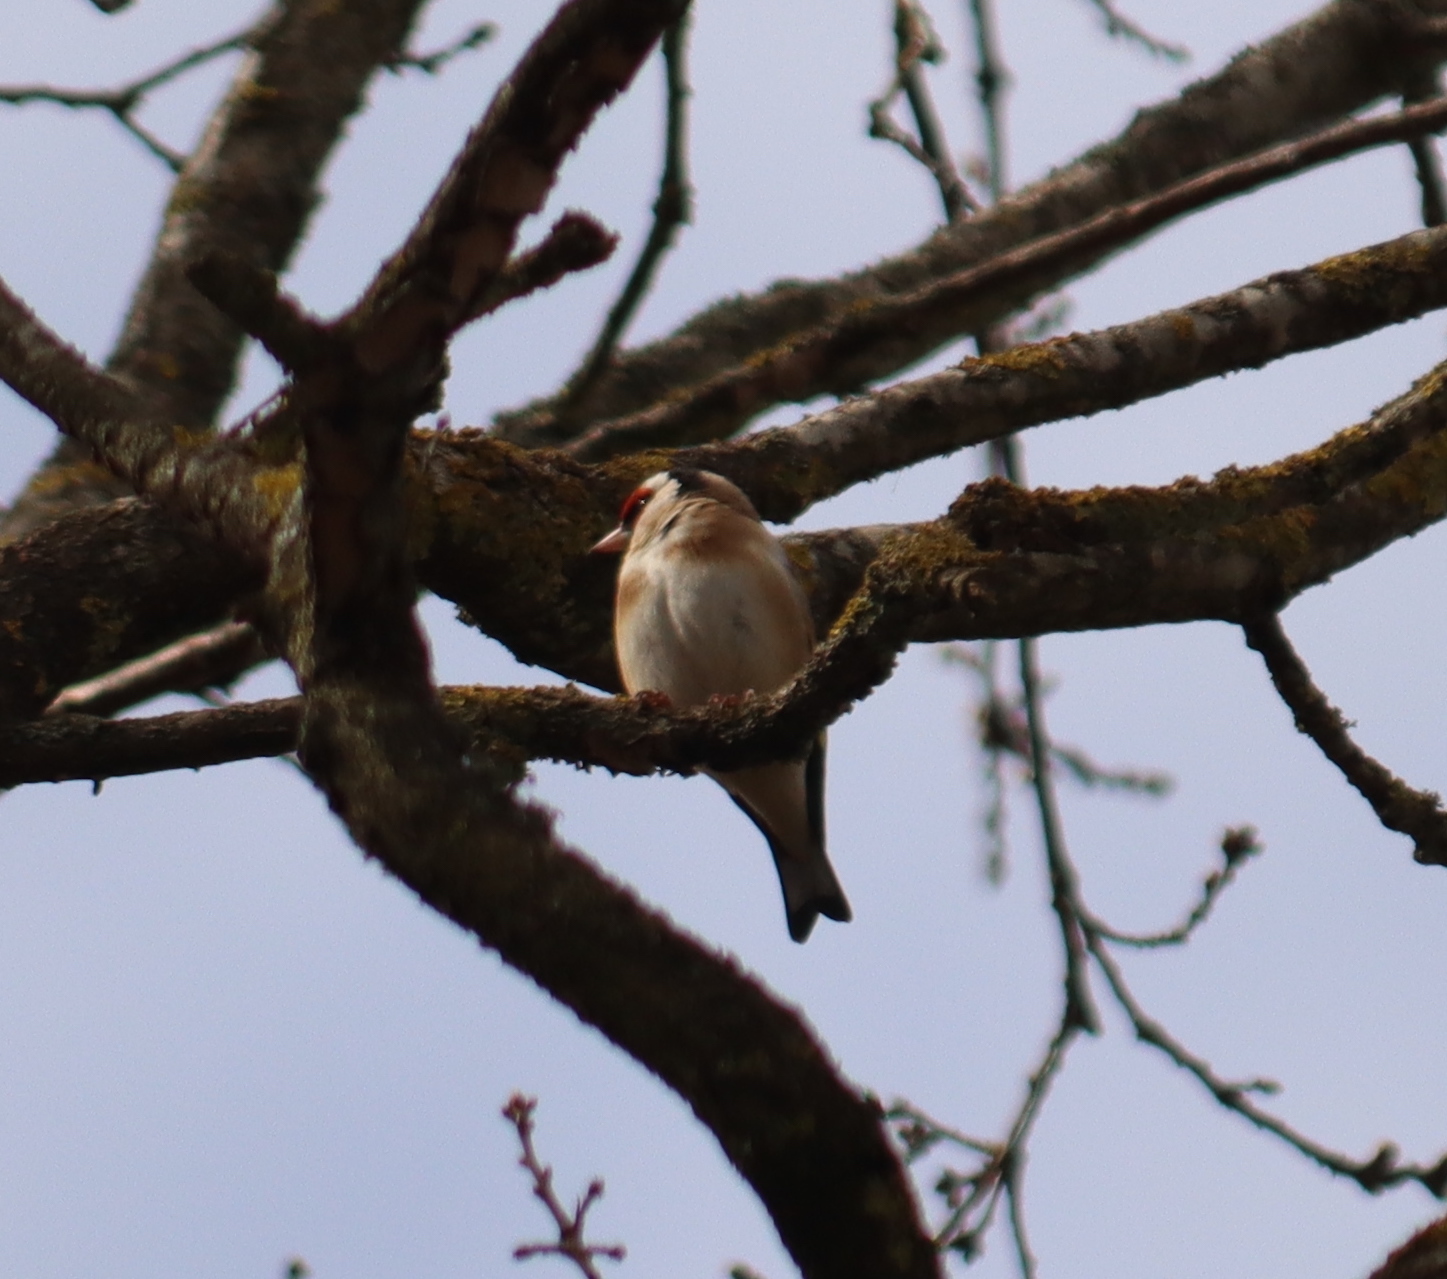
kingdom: Animalia
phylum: Chordata
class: Aves
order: Passeriformes
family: Fringillidae
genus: Carduelis
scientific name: Carduelis carduelis
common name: European goldfinch
